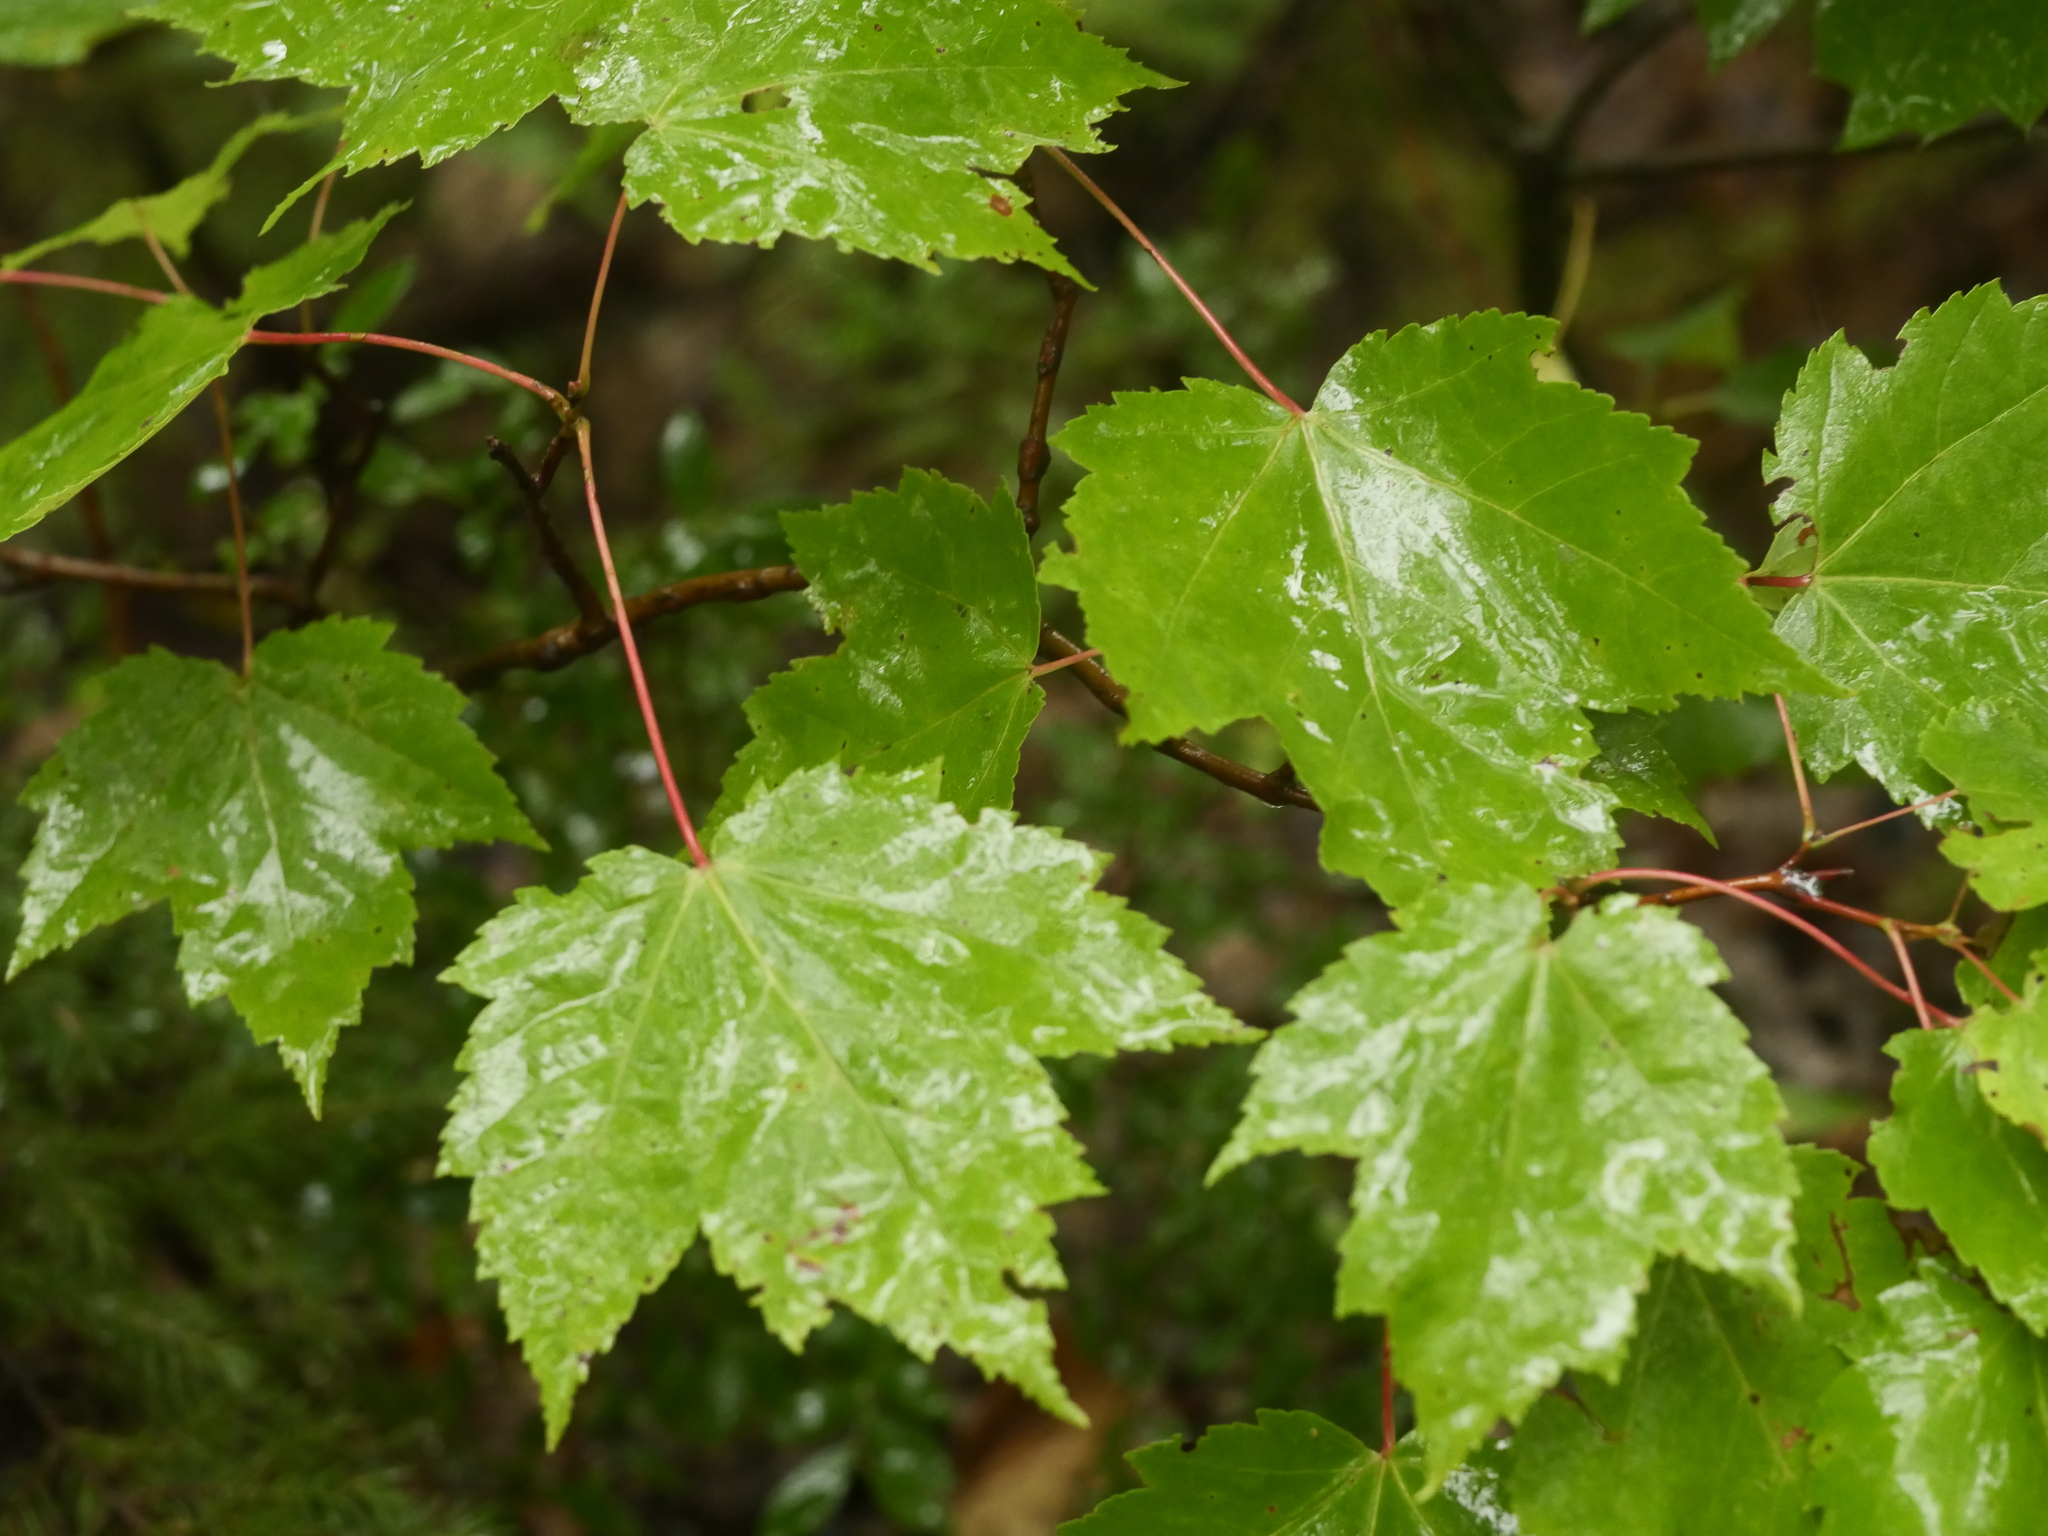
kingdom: Plantae
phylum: Tracheophyta
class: Magnoliopsida
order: Sapindales
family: Sapindaceae
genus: Acer
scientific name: Acer rubrum
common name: Red maple
